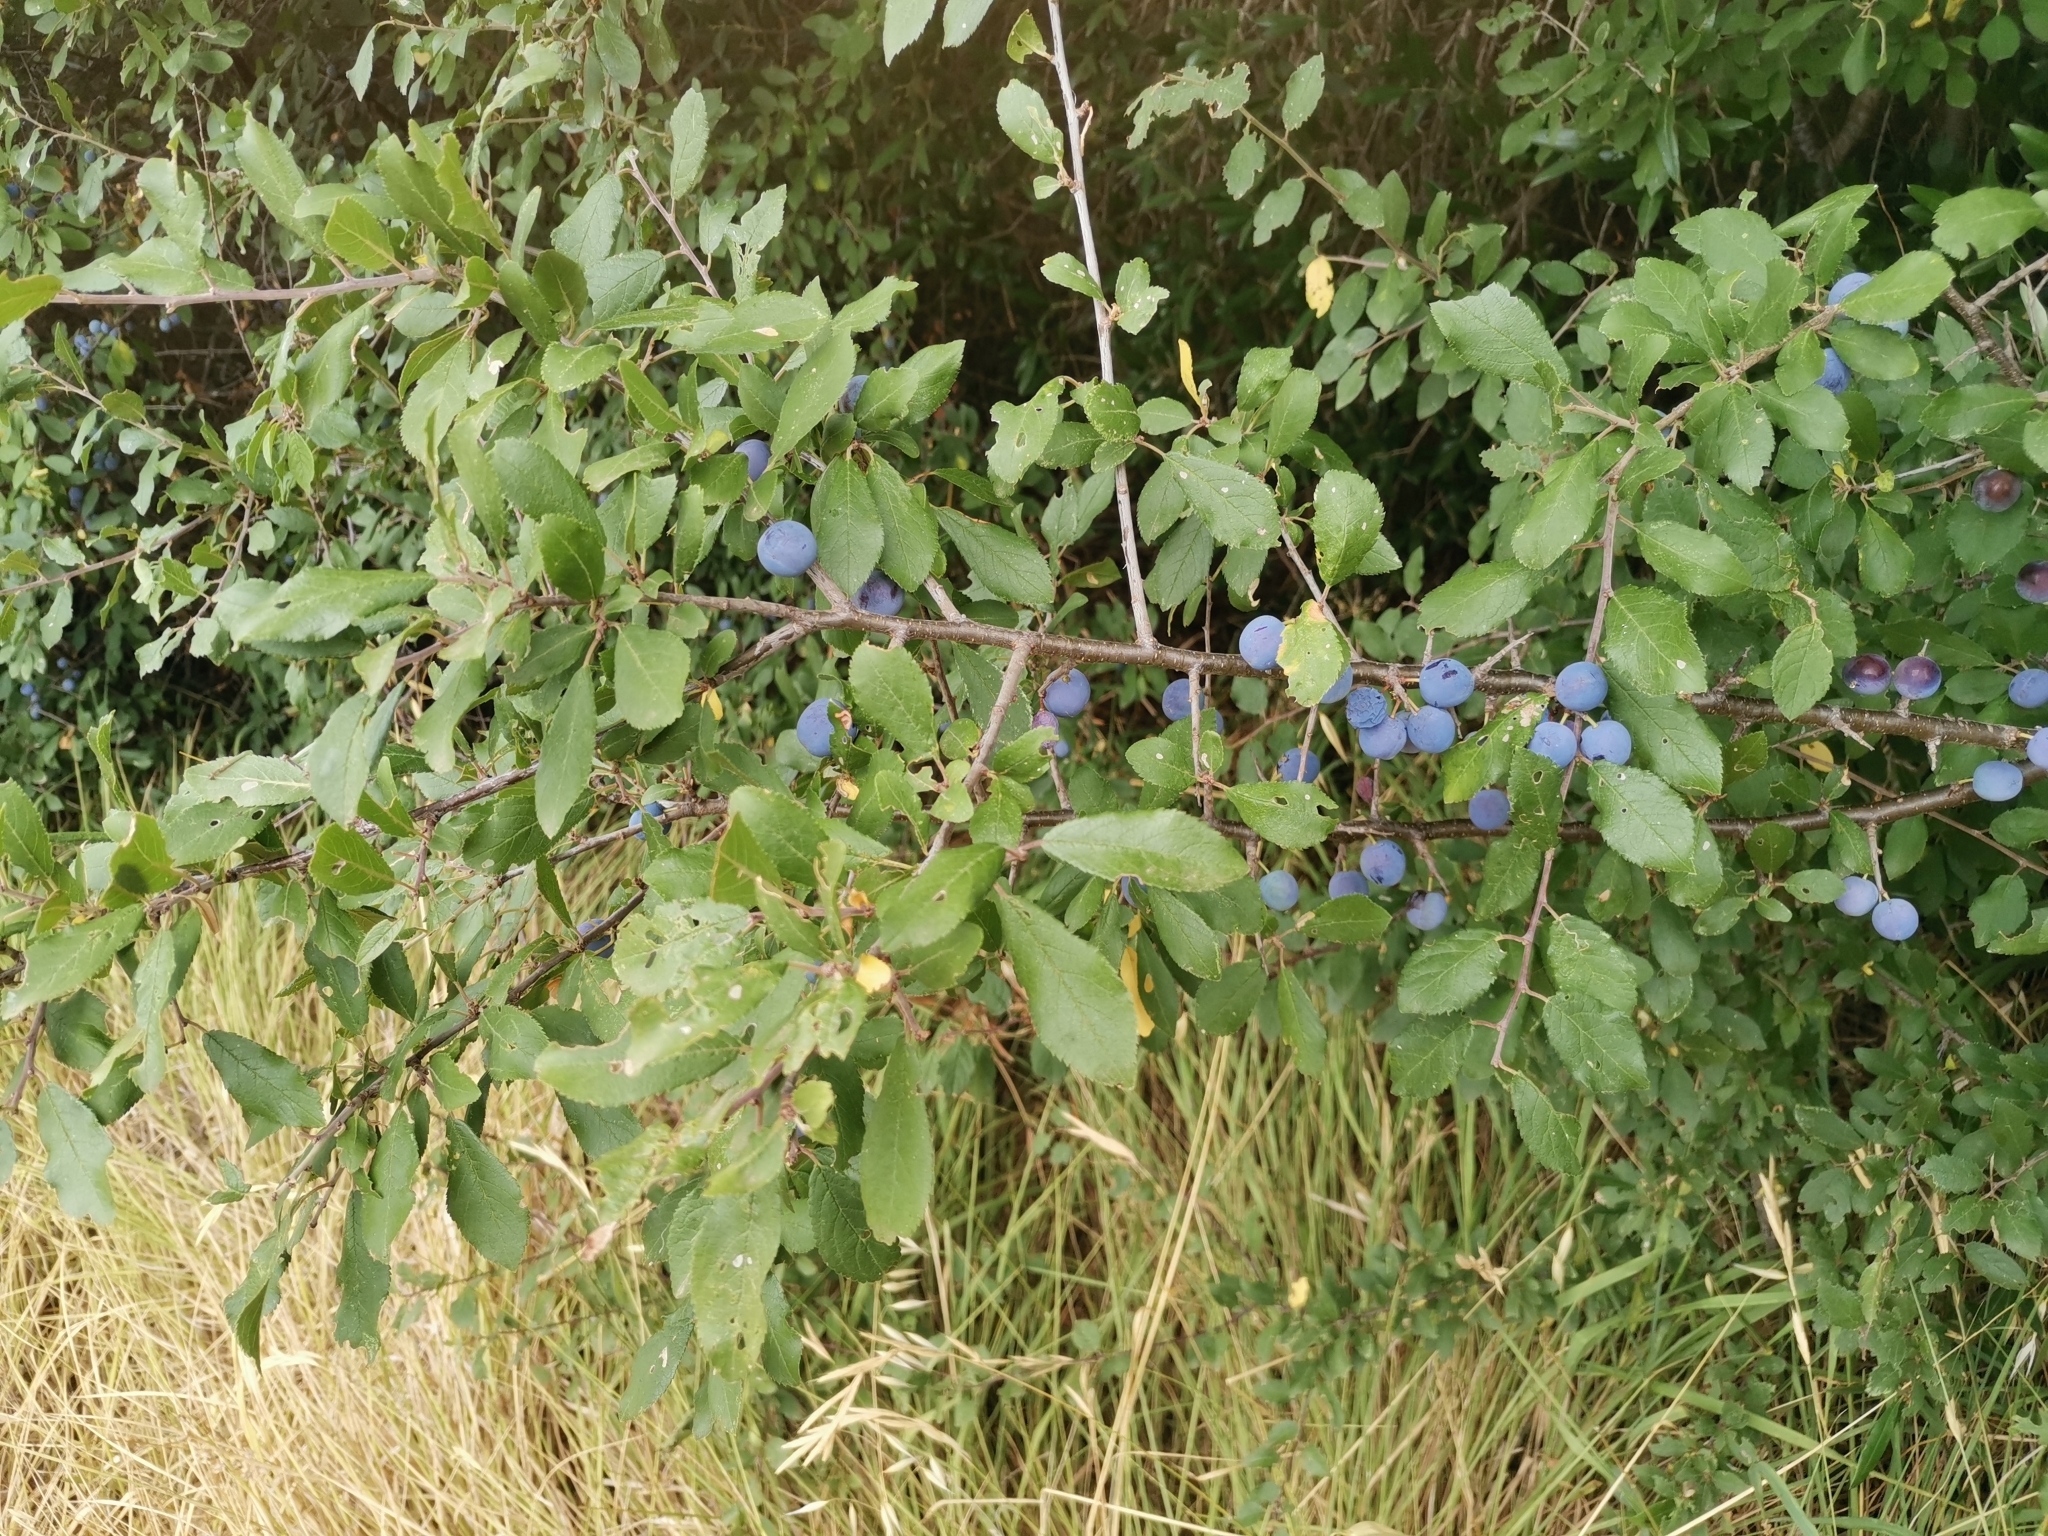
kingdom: Plantae
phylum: Tracheophyta
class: Magnoliopsida
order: Rosales
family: Rosaceae
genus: Prunus
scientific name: Prunus spinosa
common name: Blackthorn
